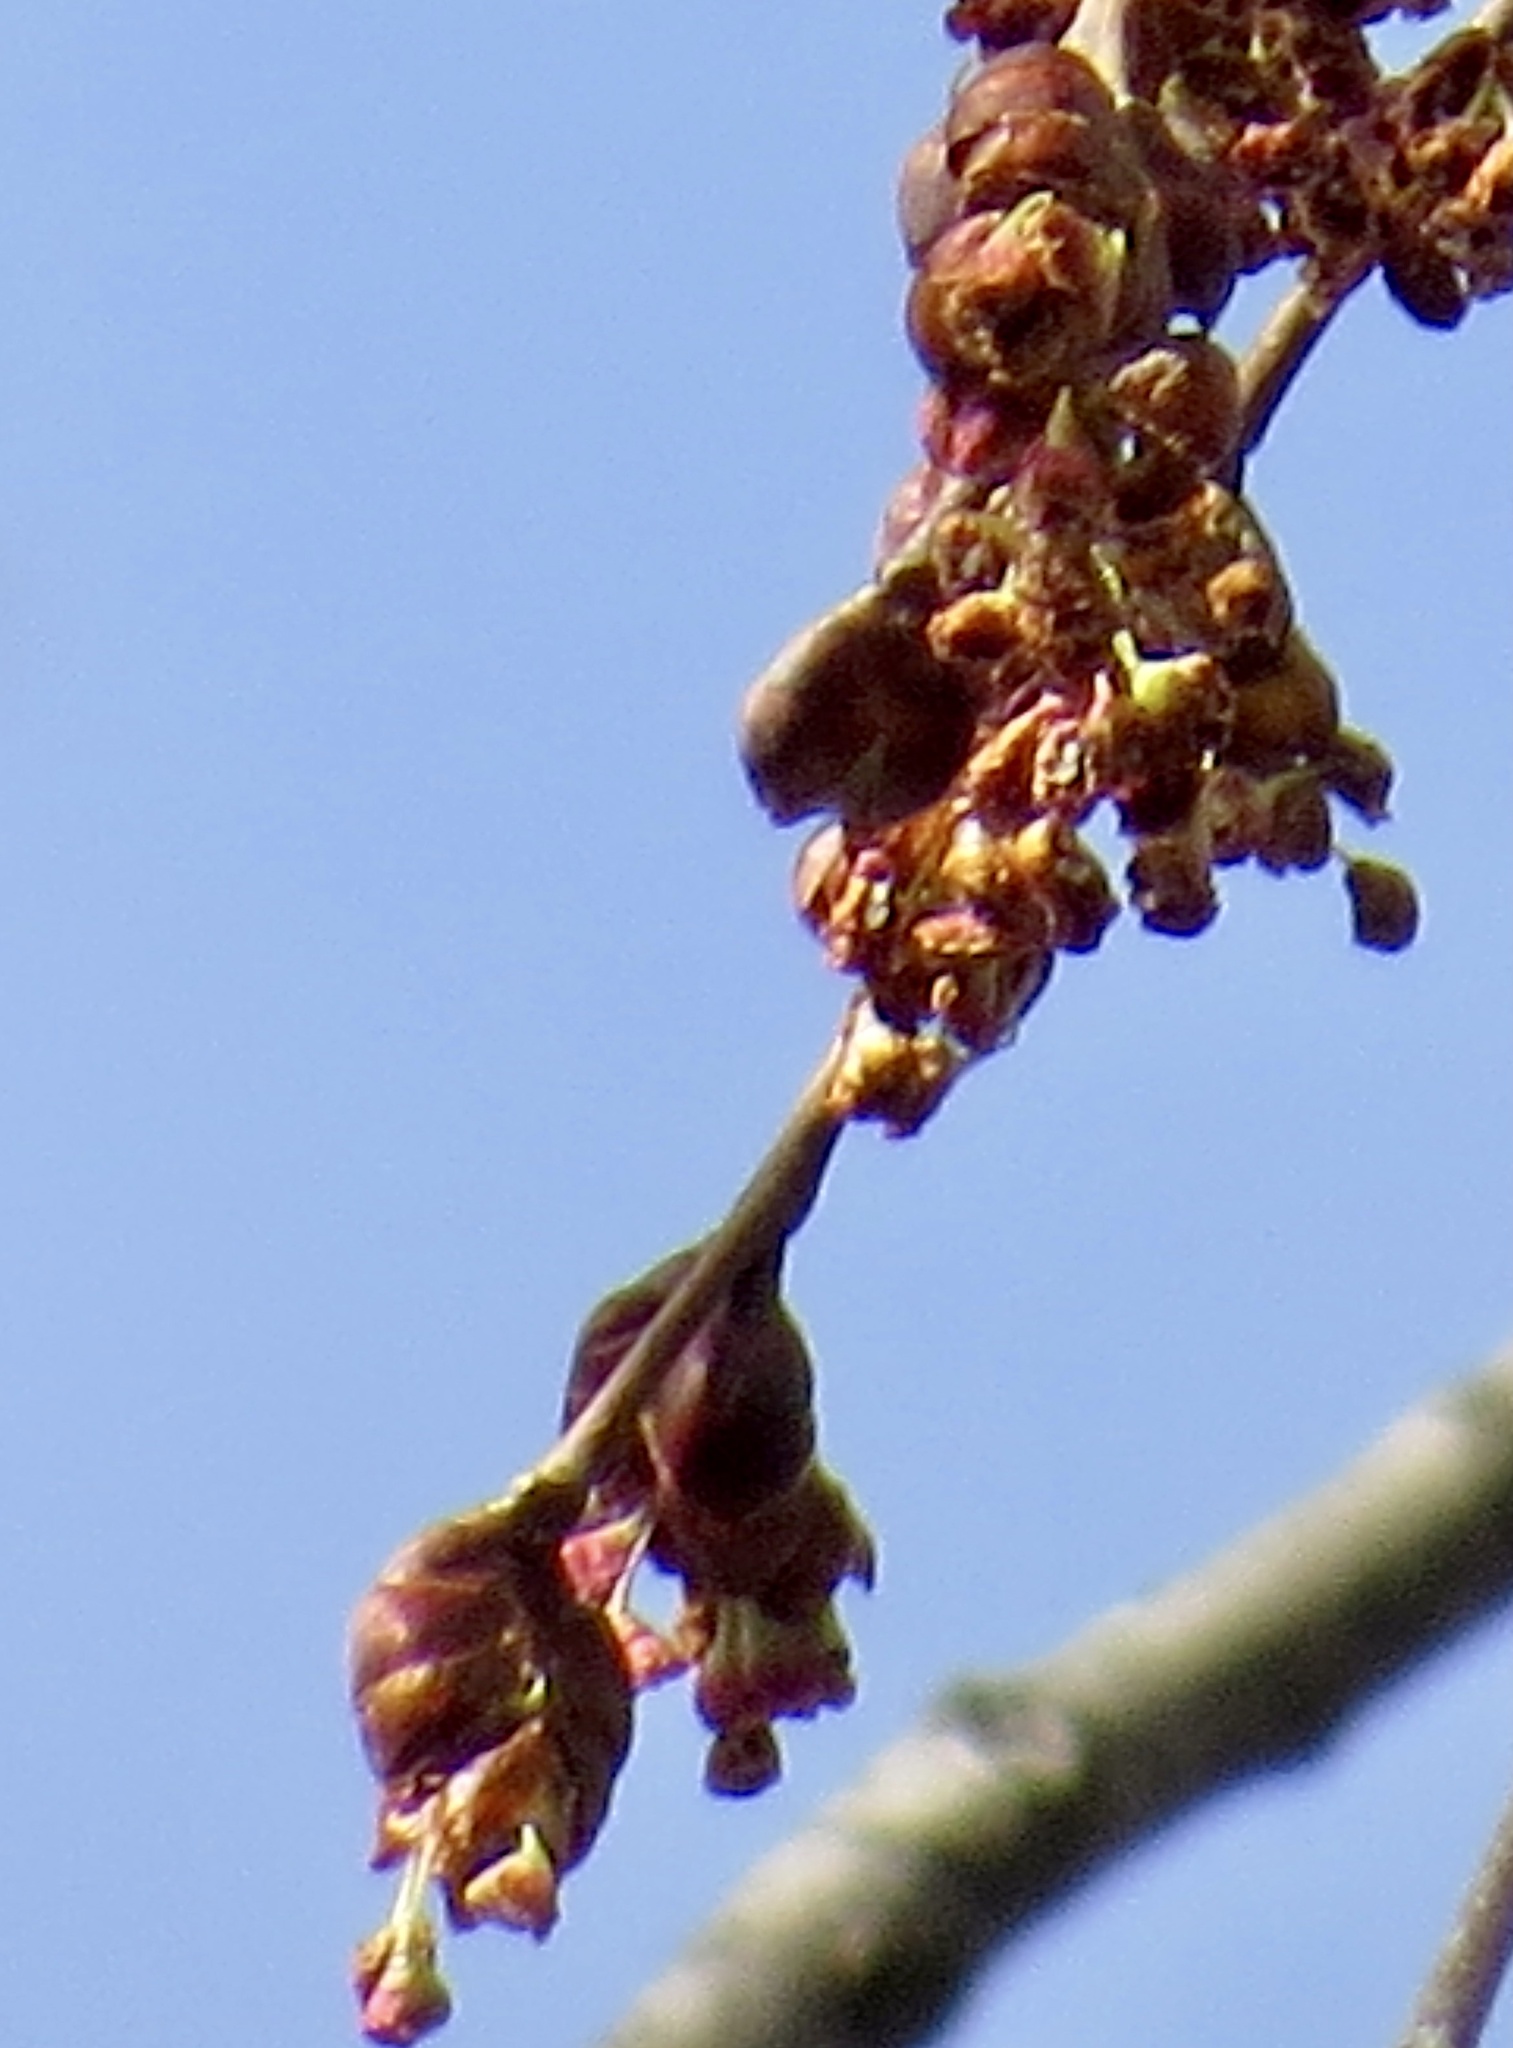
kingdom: Plantae
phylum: Tracheophyta
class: Magnoliopsida
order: Rosales
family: Ulmaceae
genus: Ulmus
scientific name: Ulmus americana
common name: American elm
